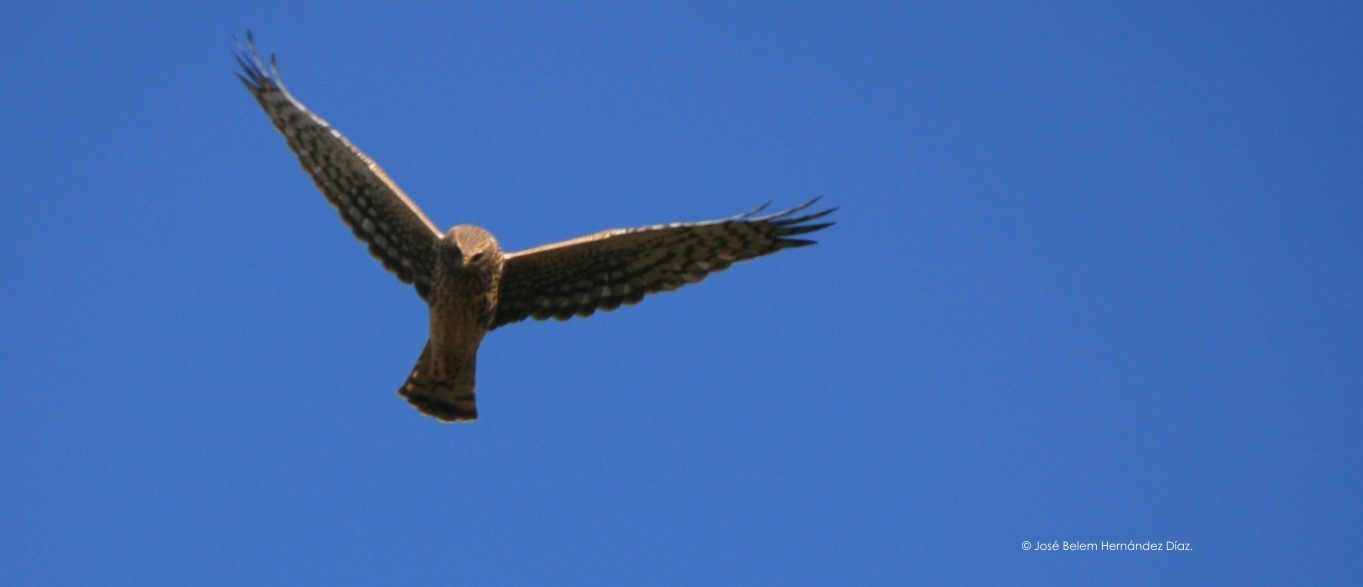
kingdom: Animalia
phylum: Chordata
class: Aves
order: Accipitriformes
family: Accipitridae
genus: Circus
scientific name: Circus cyaneus
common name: Hen harrier
